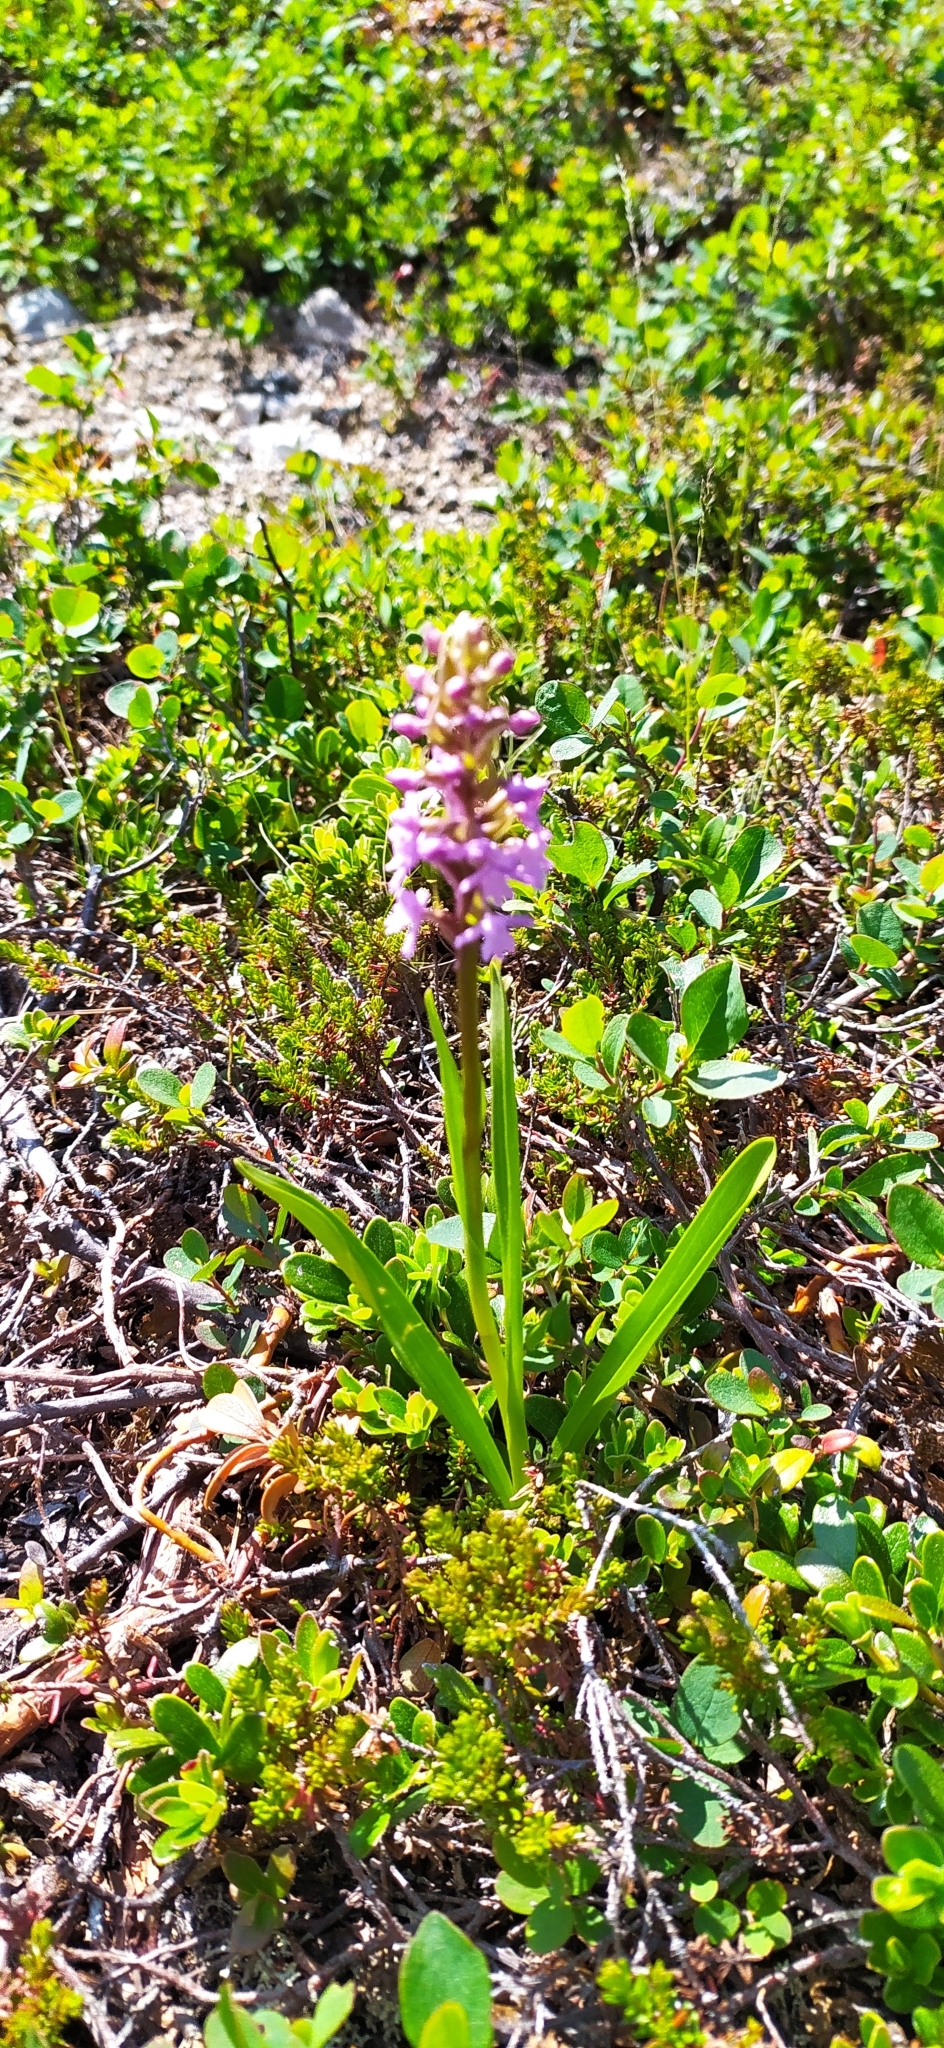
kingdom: Plantae
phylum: Tracheophyta
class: Liliopsida
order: Asparagales
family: Orchidaceae
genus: Gymnadenia
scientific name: Gymnadenia conopsea
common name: Fragrant orchid
